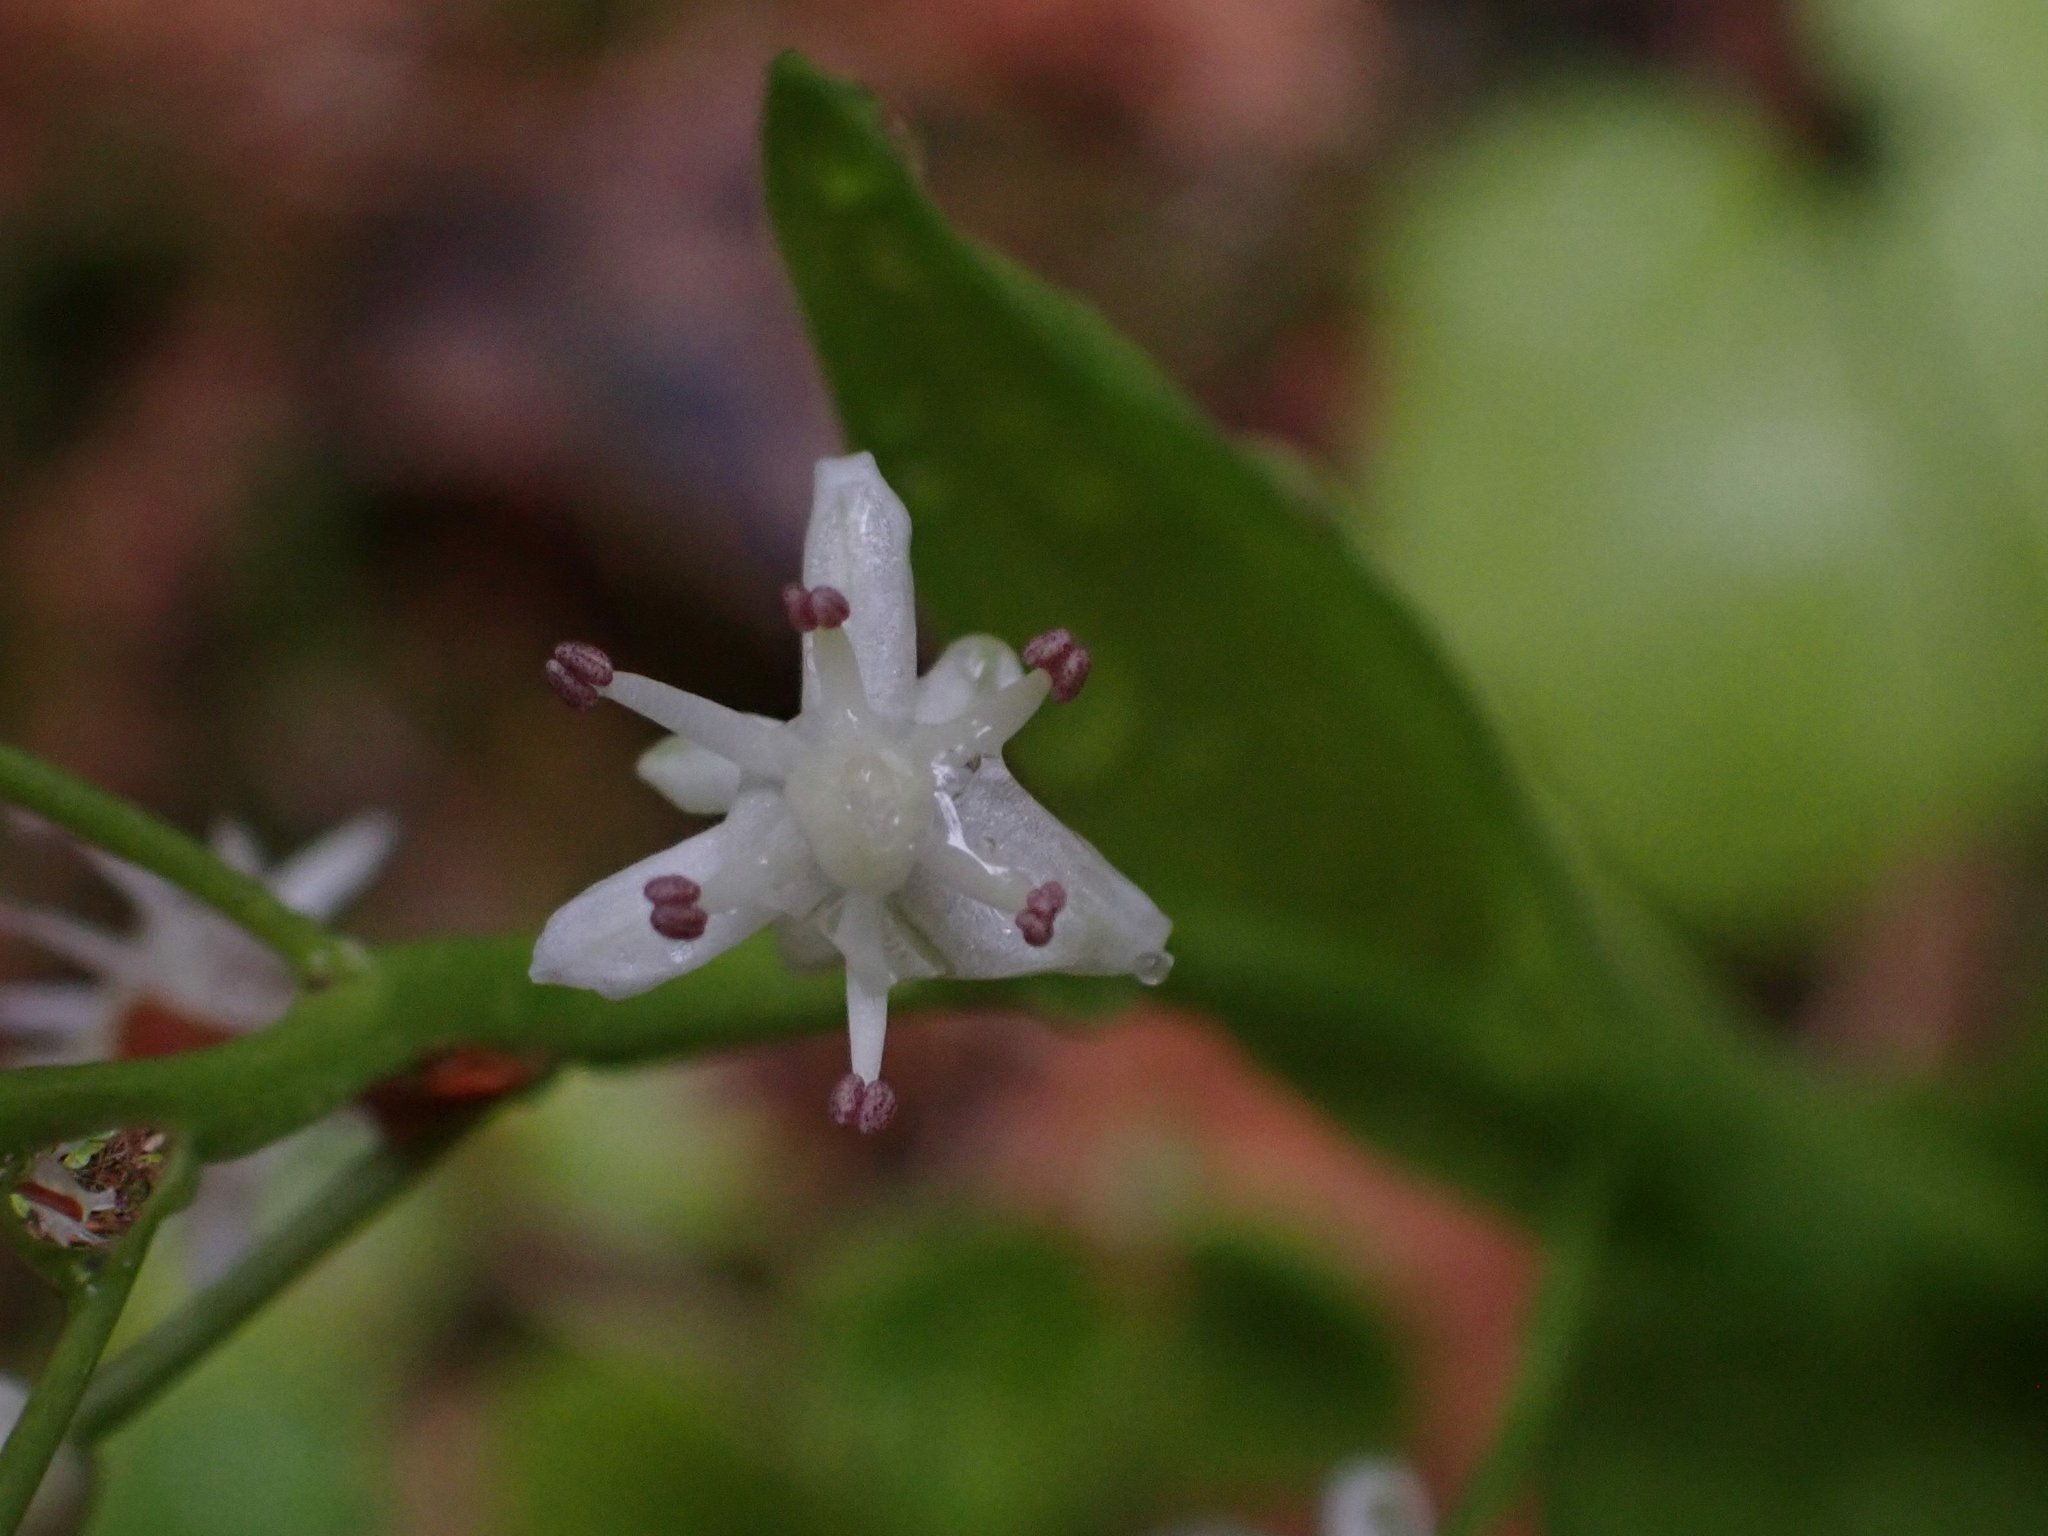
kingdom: Plantae
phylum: Tracheophyta
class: Liliopsida
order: Asparagales
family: Asparagaceae
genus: Maianthemum
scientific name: Maianthemum trifolium
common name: Swamp false solomon's seal
